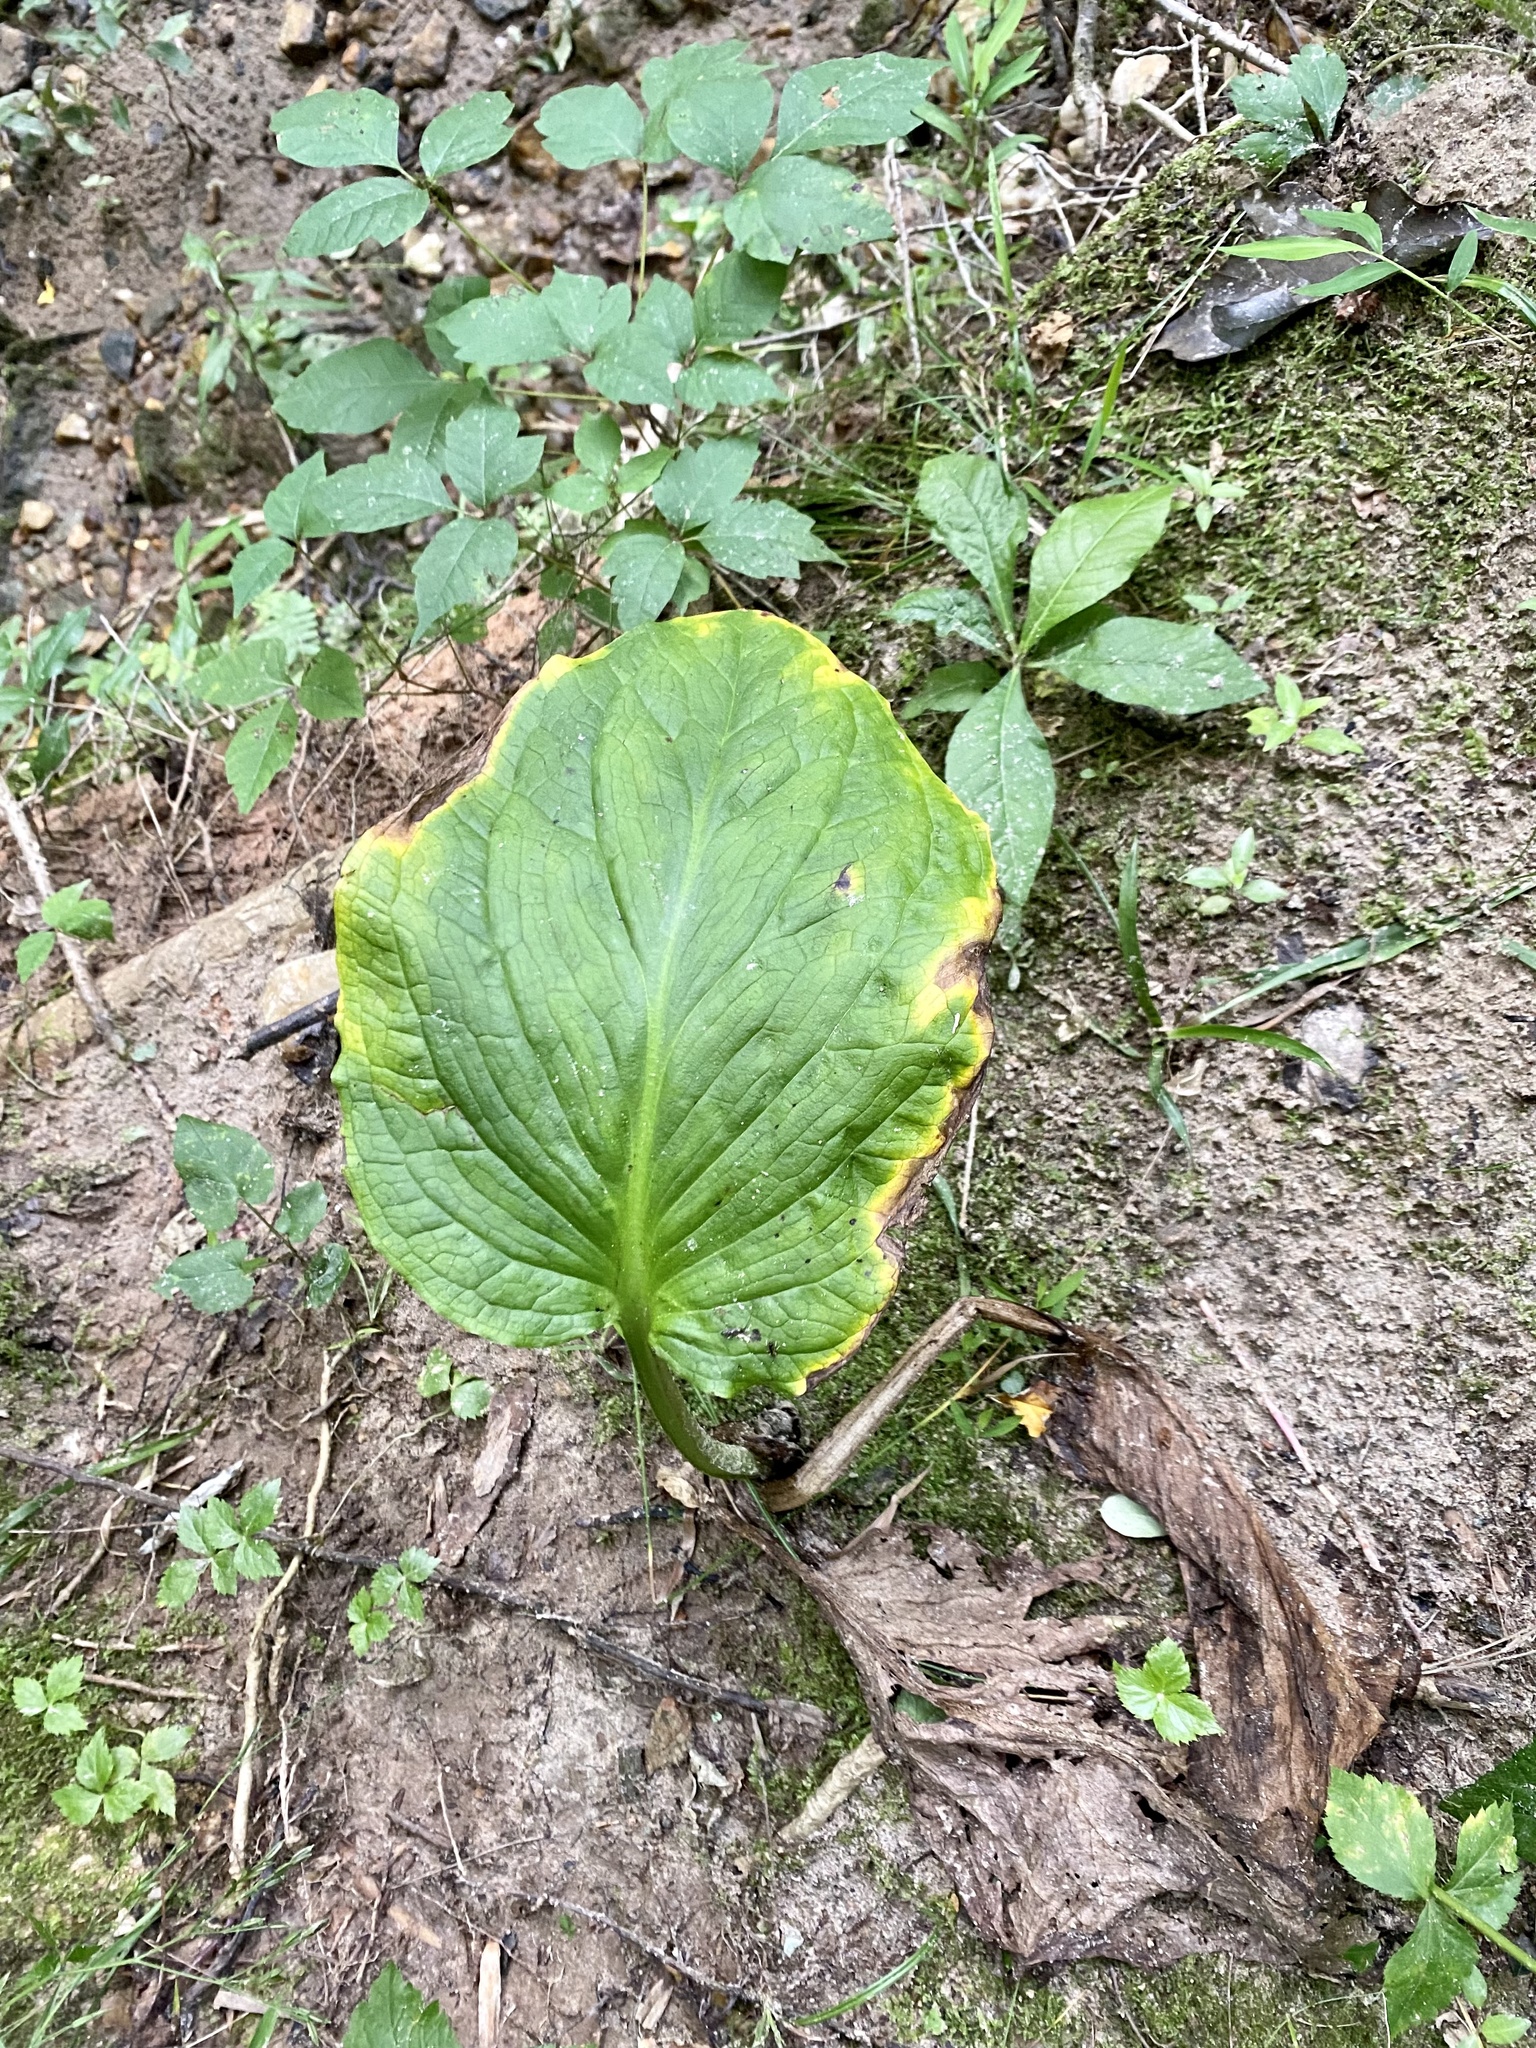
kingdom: Plantae
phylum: Tracheophyta
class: Liliopsida
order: Alismatales
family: Araceae
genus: Symplocarpus
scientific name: Symplocarpus foetidus
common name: Eastern skunk cabbage
